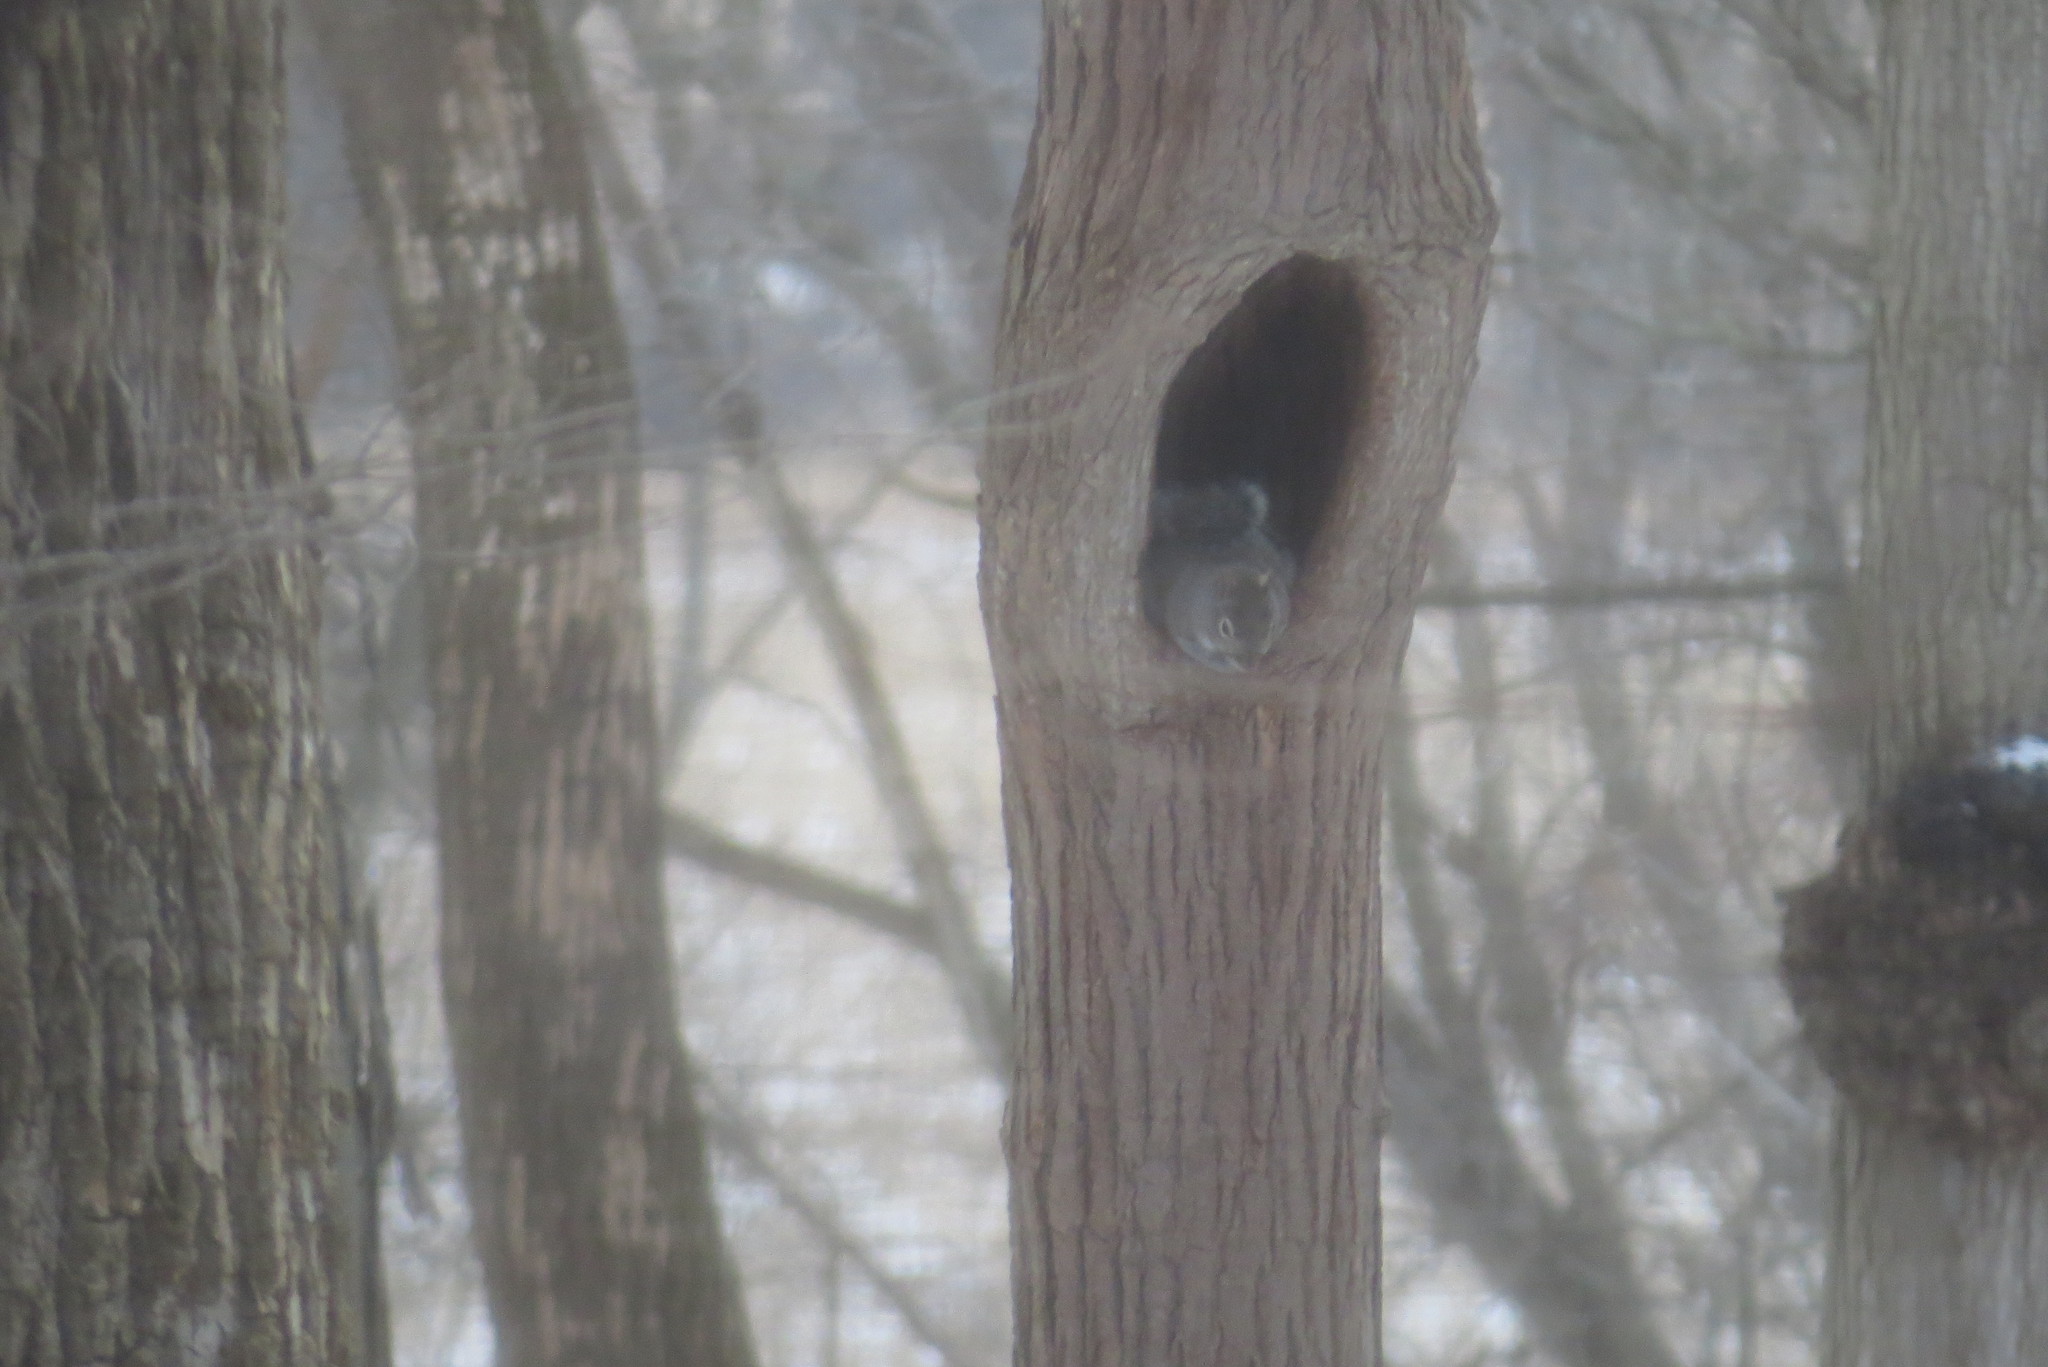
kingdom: Animalia
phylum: Chordata
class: Mammalia
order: Rodentia
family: Sciuridae
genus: Sciurus
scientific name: Sciurus carolinensis
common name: Eastern gray squirrel
